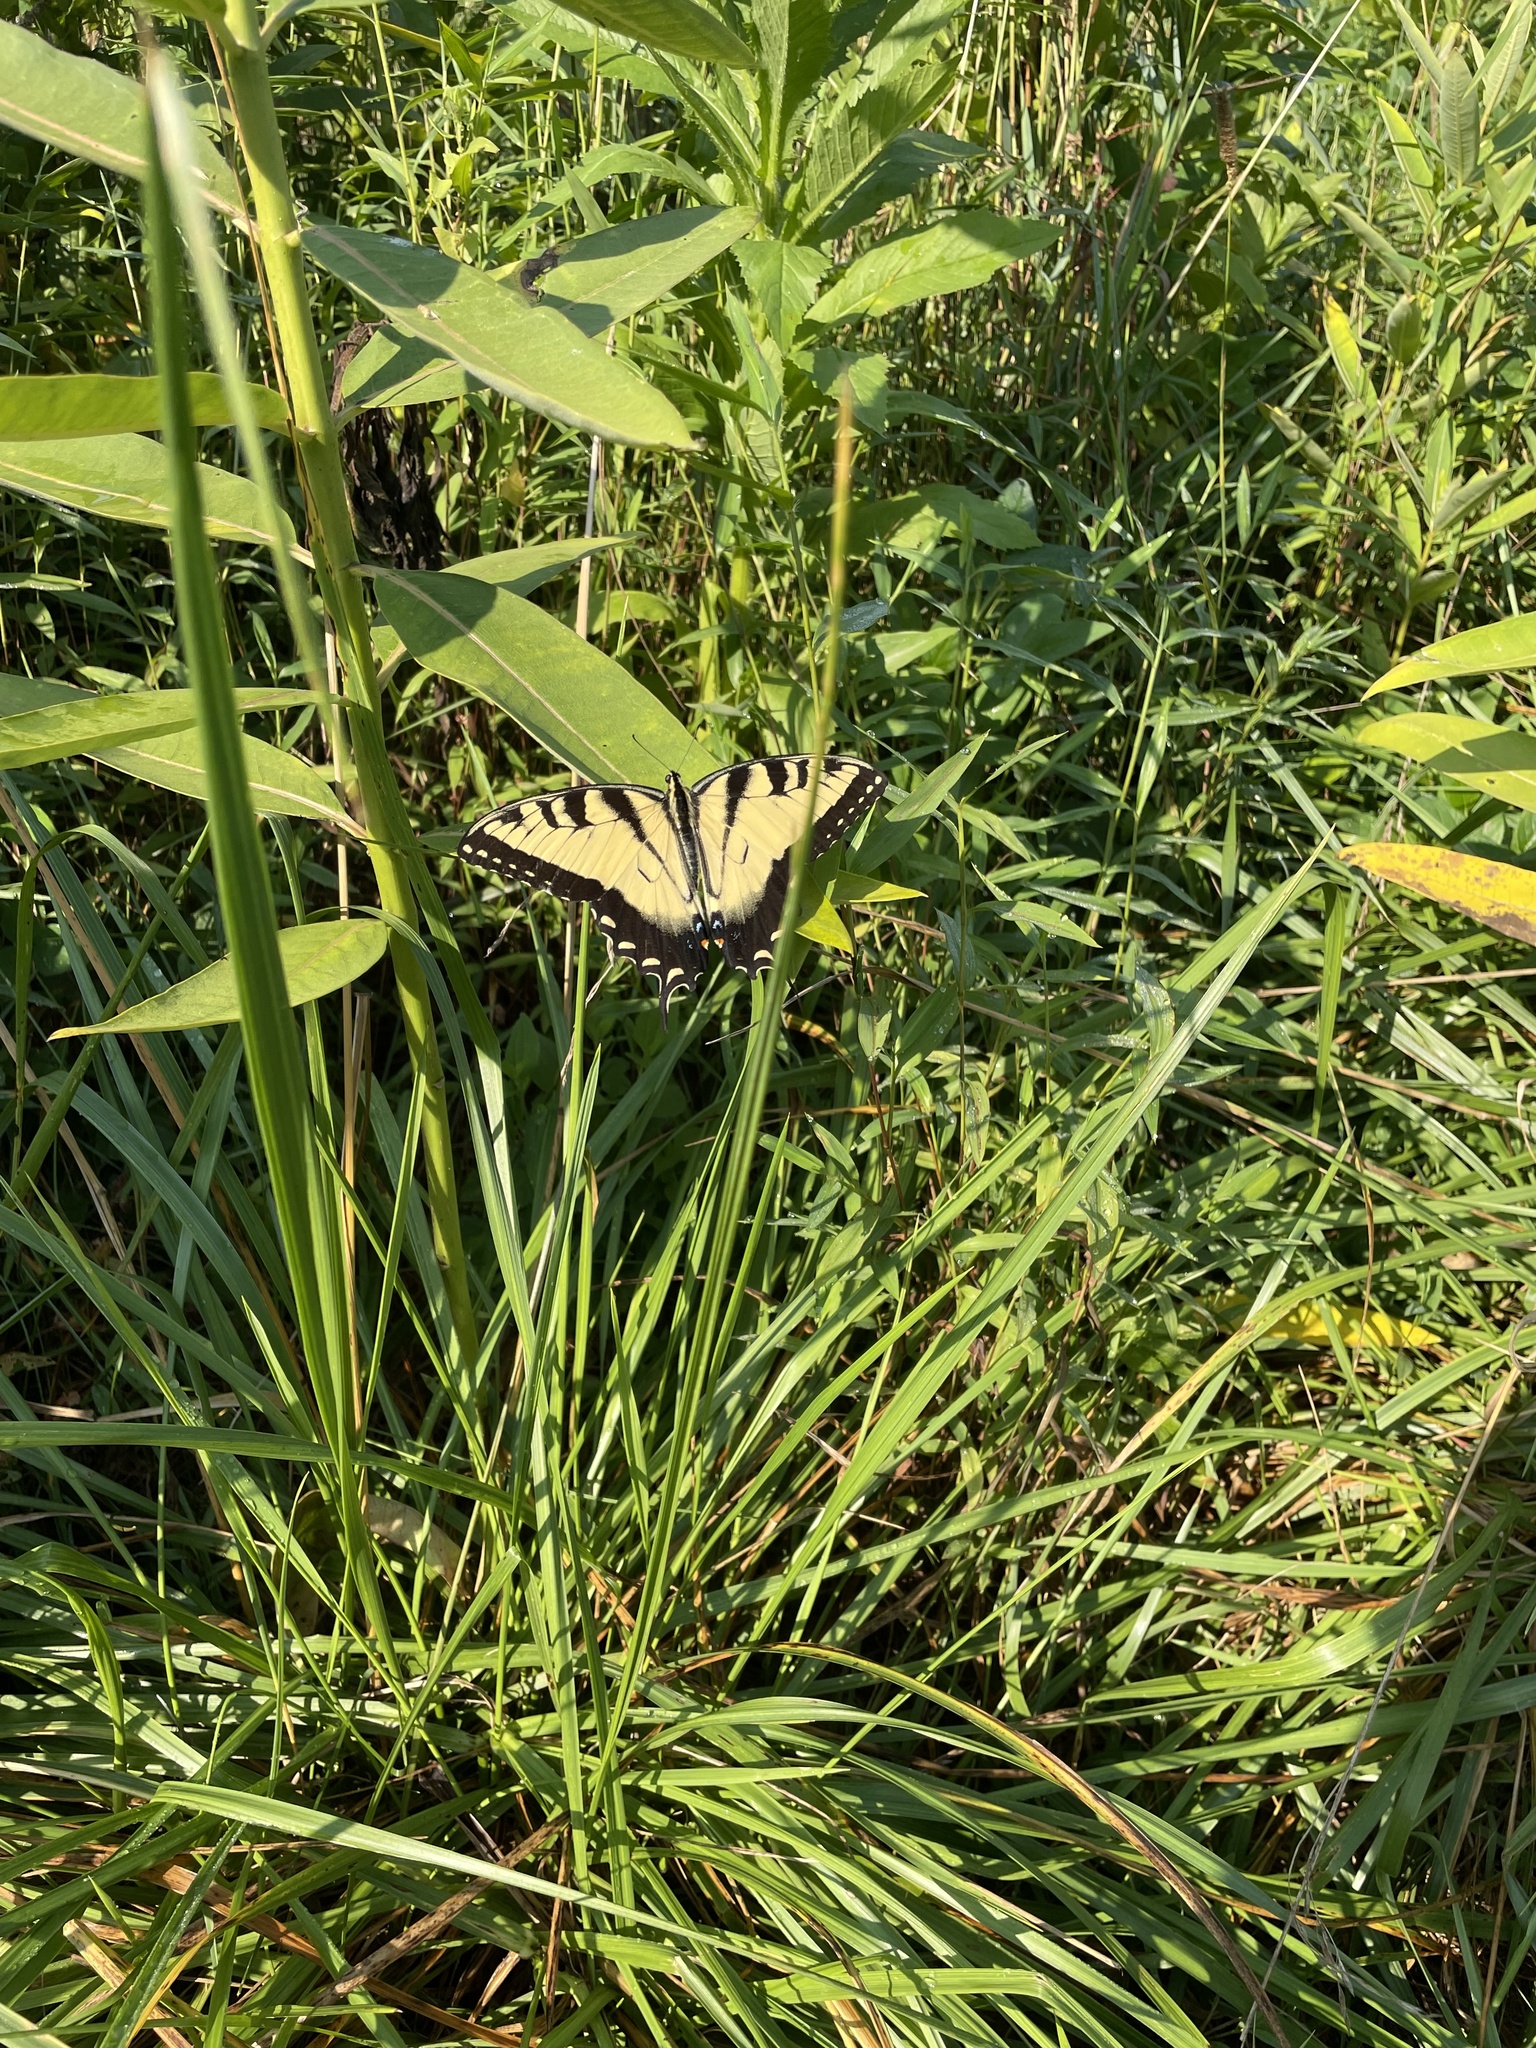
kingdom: Animalia
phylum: Arthropoda
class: Insecta
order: Lepidoptera
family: Papilionidae
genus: Papilio
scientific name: Papilio glaucus
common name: Tiger swallowtail
